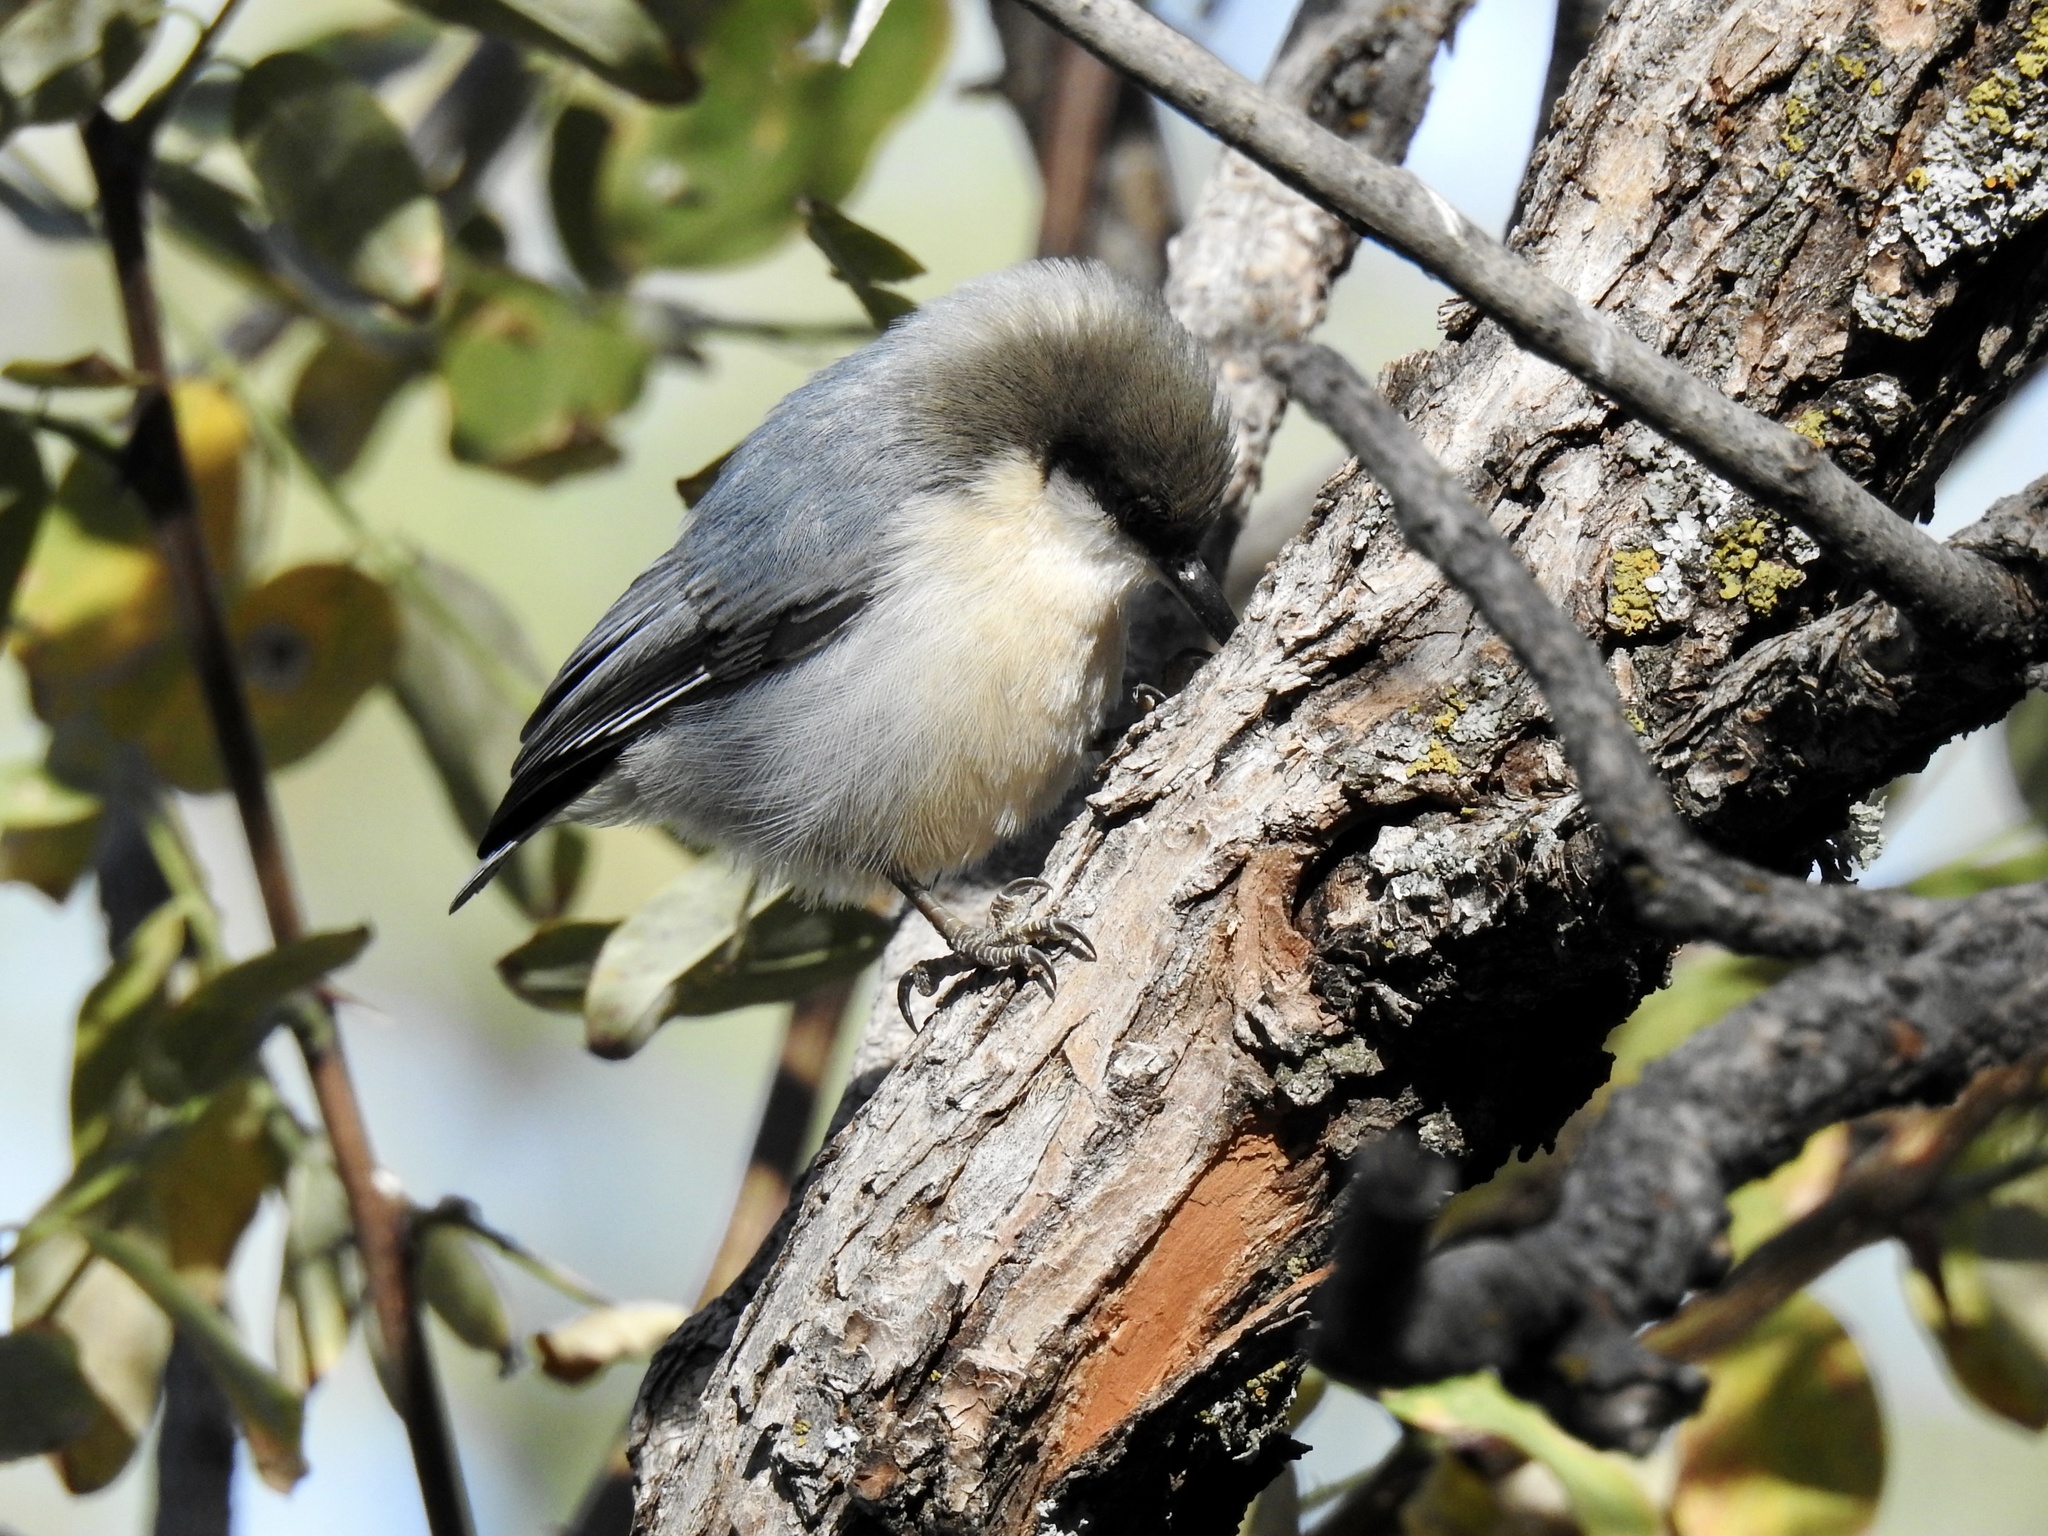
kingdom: Animalia
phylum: Chordata
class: Aves
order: Passeriformes
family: Sittidae
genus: Sitta
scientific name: Sitta pygmaea
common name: Pygmy nuthatch
